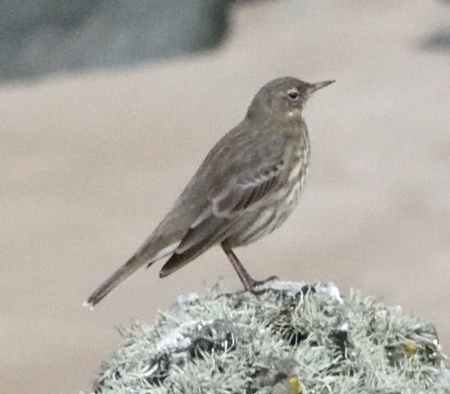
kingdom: Animalia
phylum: Chordata
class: Aves
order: Passeriformes
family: Motacillidae
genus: Anthus
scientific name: Anthus petrosus
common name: Eurasian rock pipit
